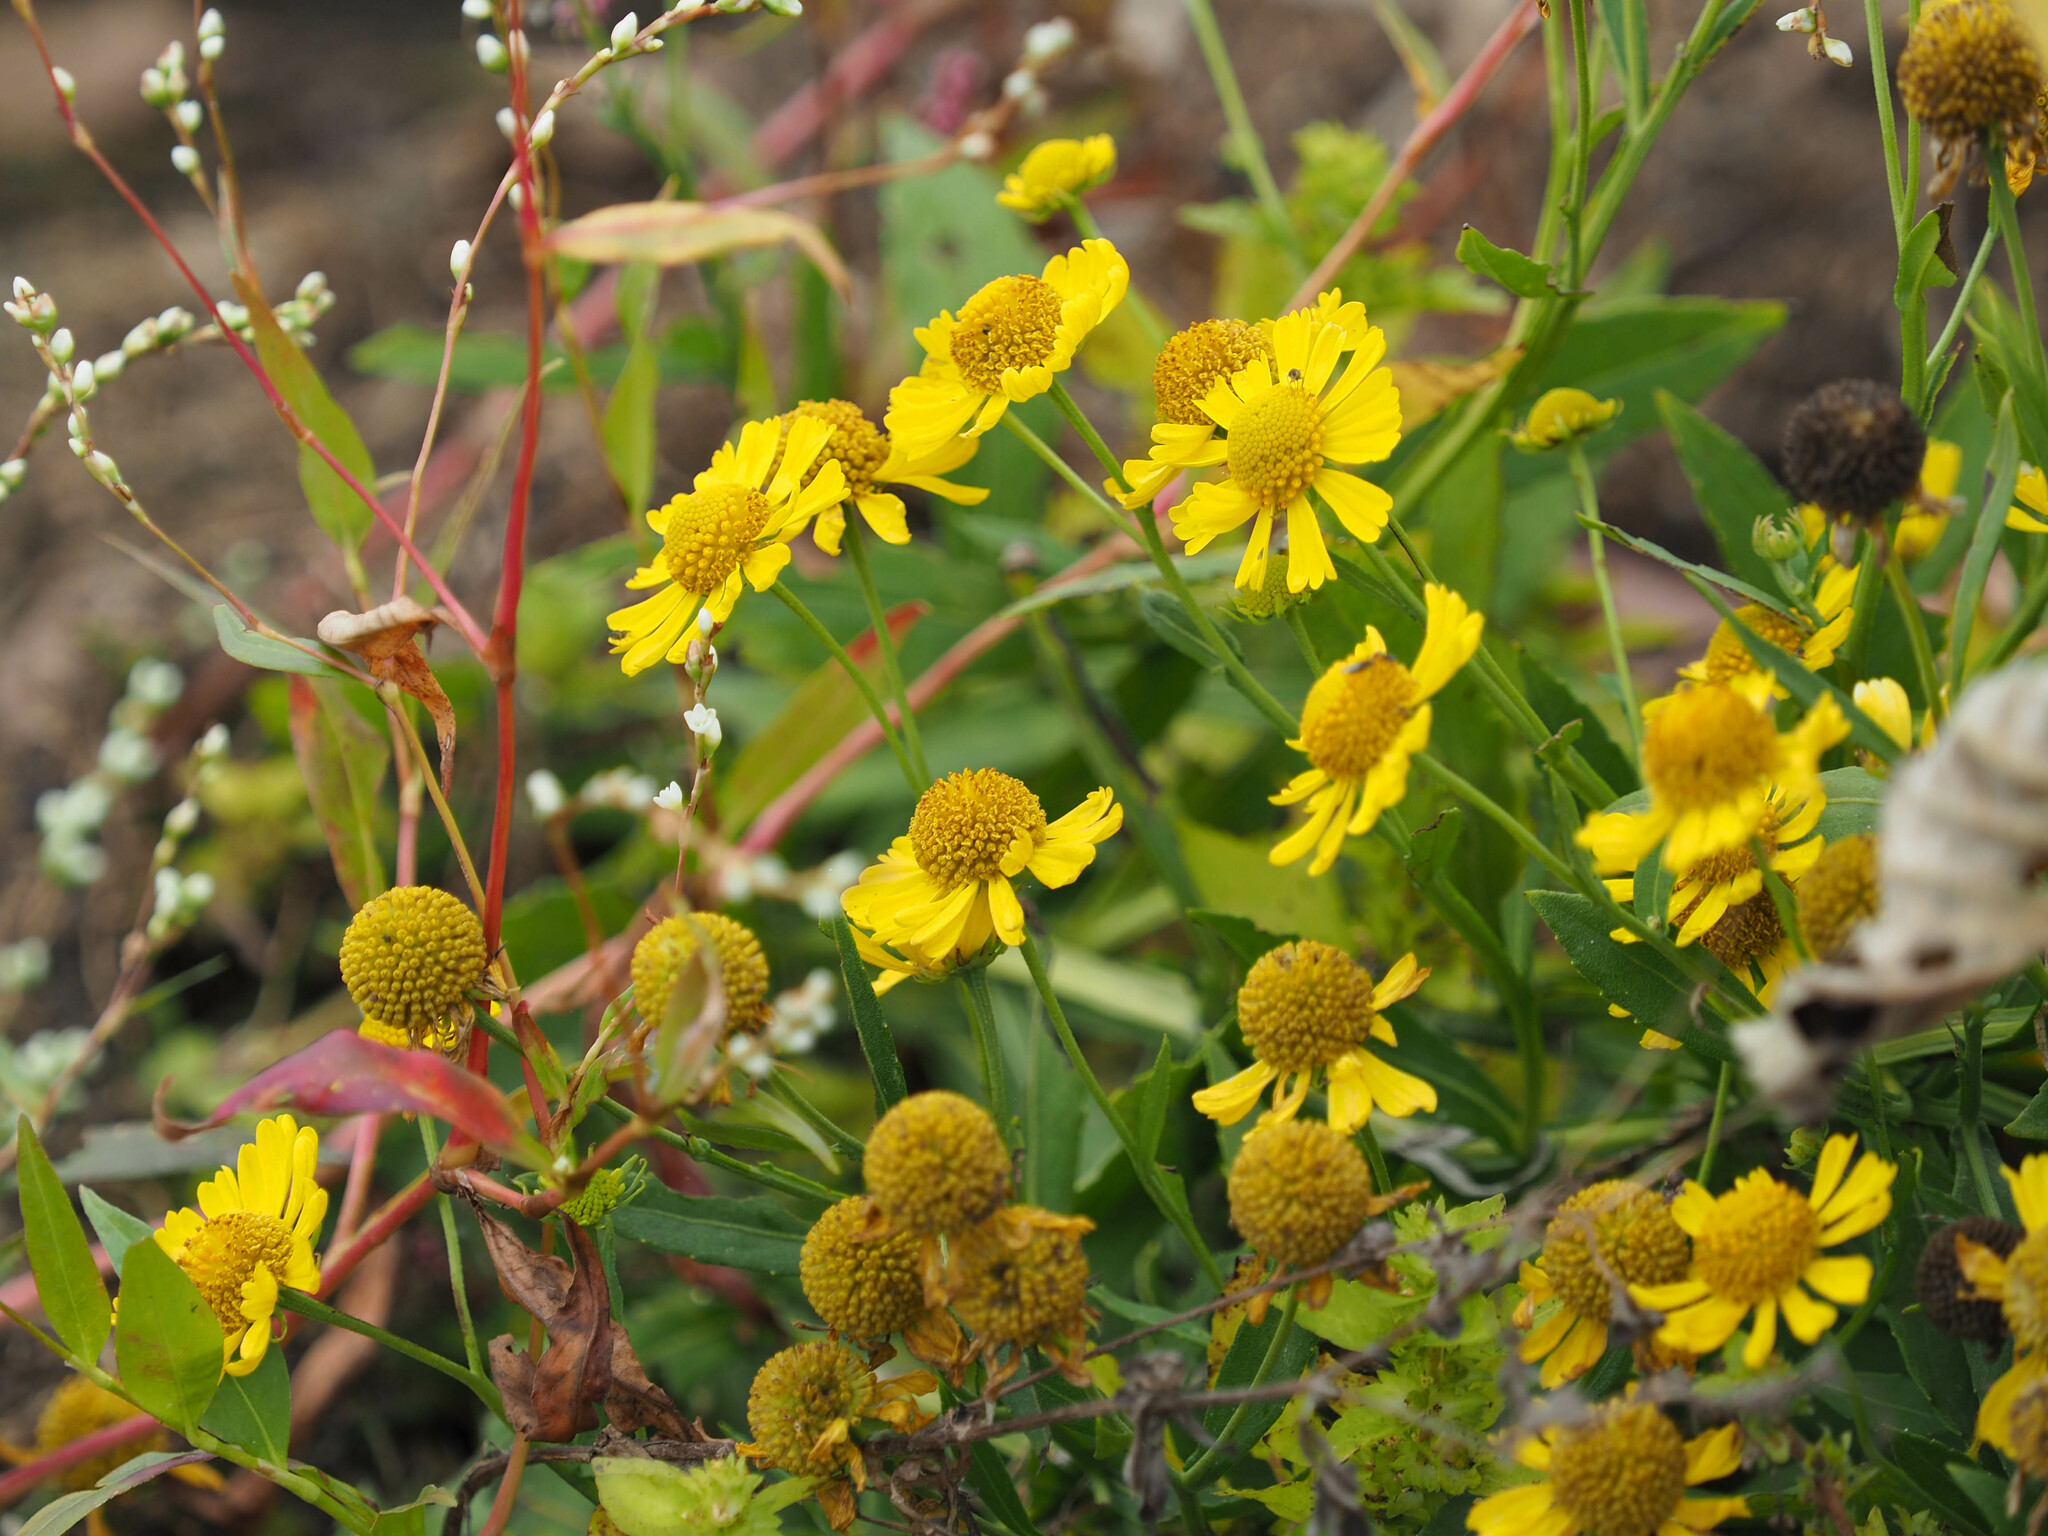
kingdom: Plantae
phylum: Tracheophyta
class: Magnoliopsida
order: Asterales
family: Asteraceae
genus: Helenium
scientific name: Helenium autumnale
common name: Sneezeweed
